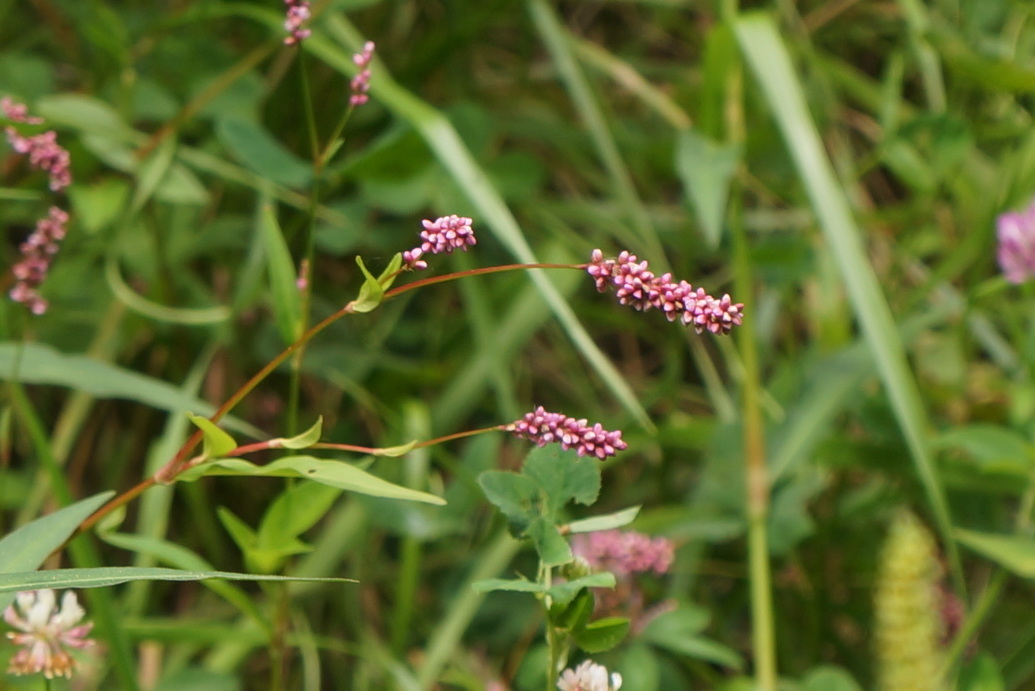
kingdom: Plantae
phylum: Tracheophyta
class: Magnoliopsida
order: Caryophyllales
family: Polygonaceae
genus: Persicaria
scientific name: Persicaria longiseta
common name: Bristly lady's-thumb
